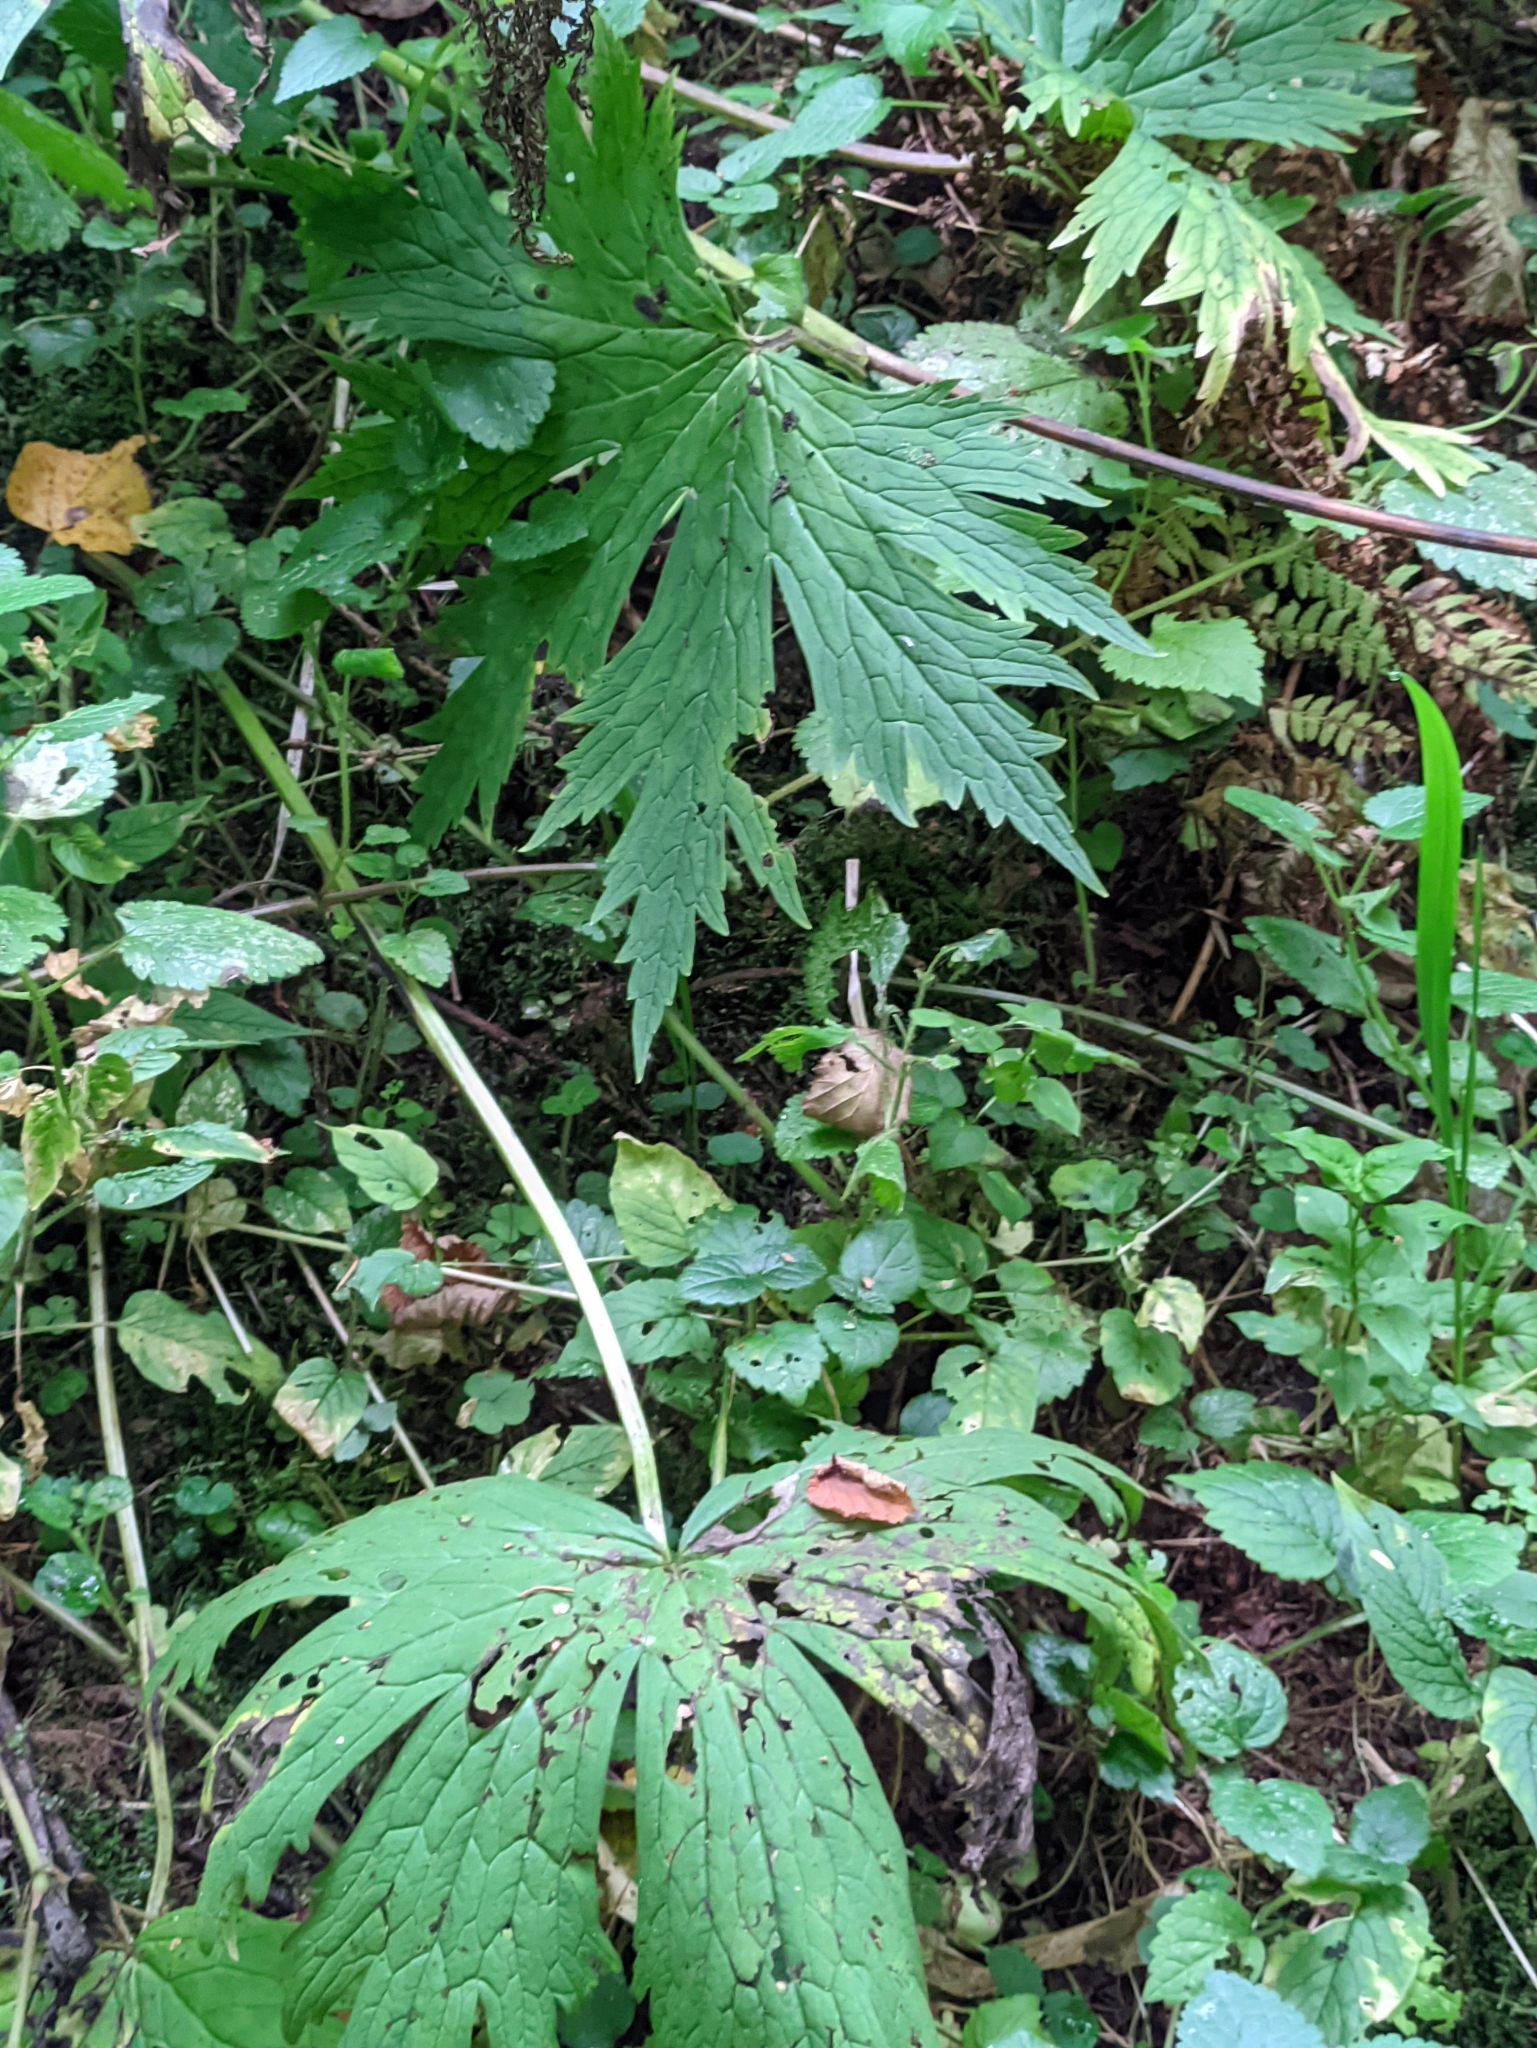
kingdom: Plantae
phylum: Tracheophyta
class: Magnoliopsida
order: Ranunculales
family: Ranunculaceae
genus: Aconitum
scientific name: Aconitum septentrionale
